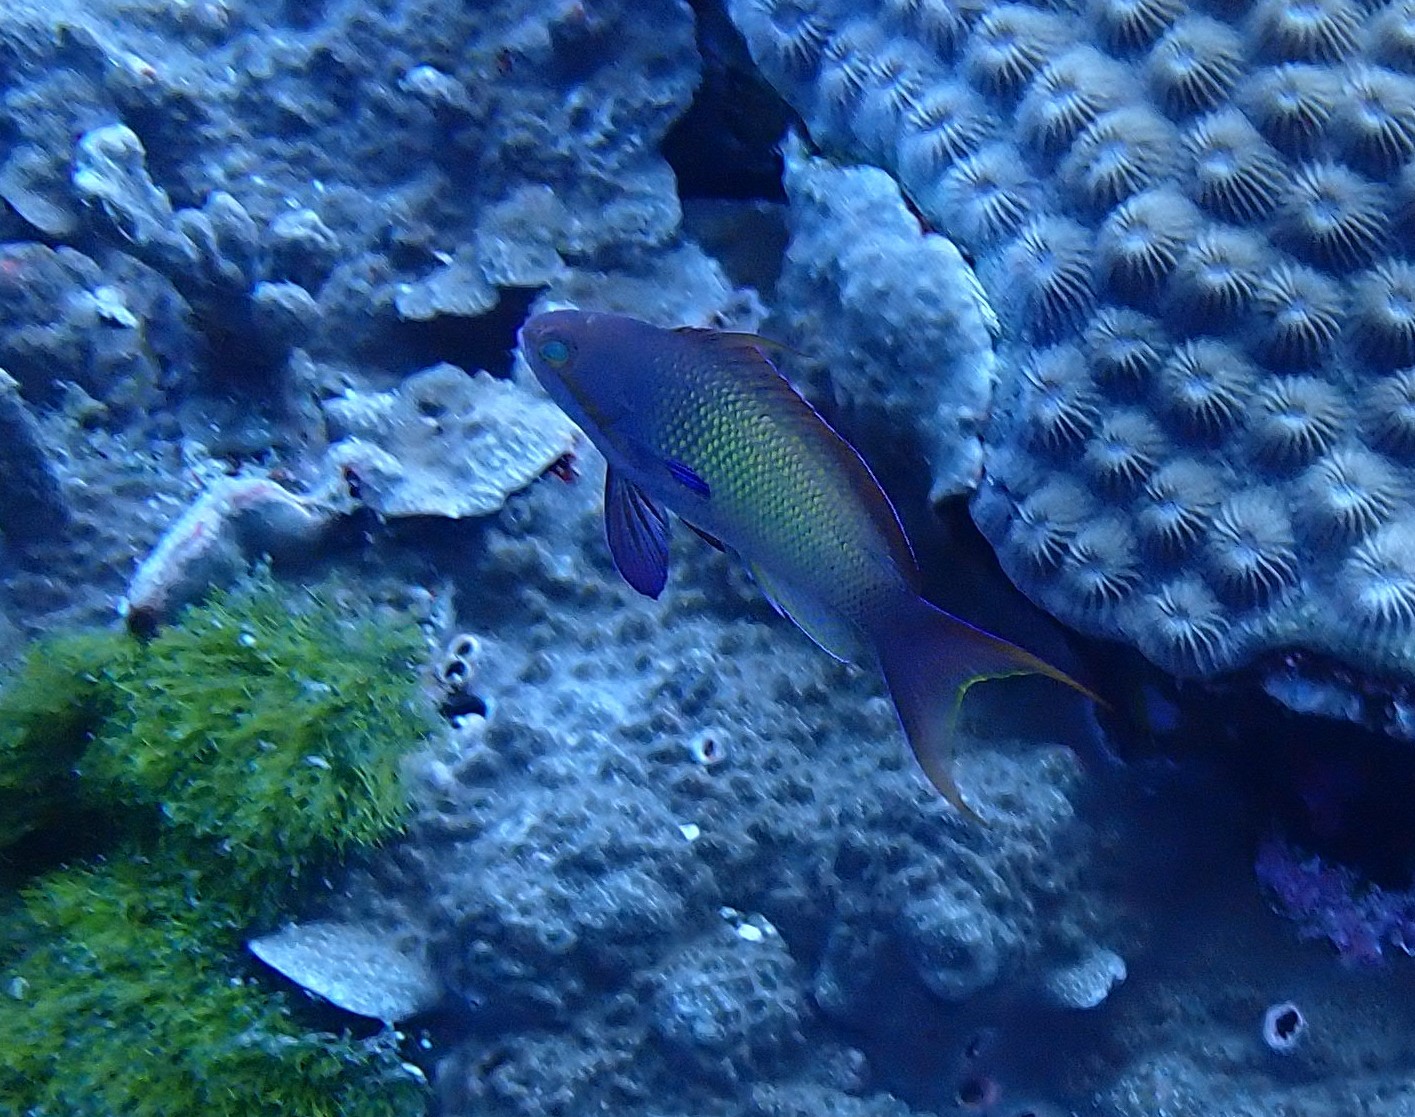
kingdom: Animalia
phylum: Chordata
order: Perciformes
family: Serranidae
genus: Pseudanthias
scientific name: Pseudanthias squamipinnis
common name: Scalefin anthias
